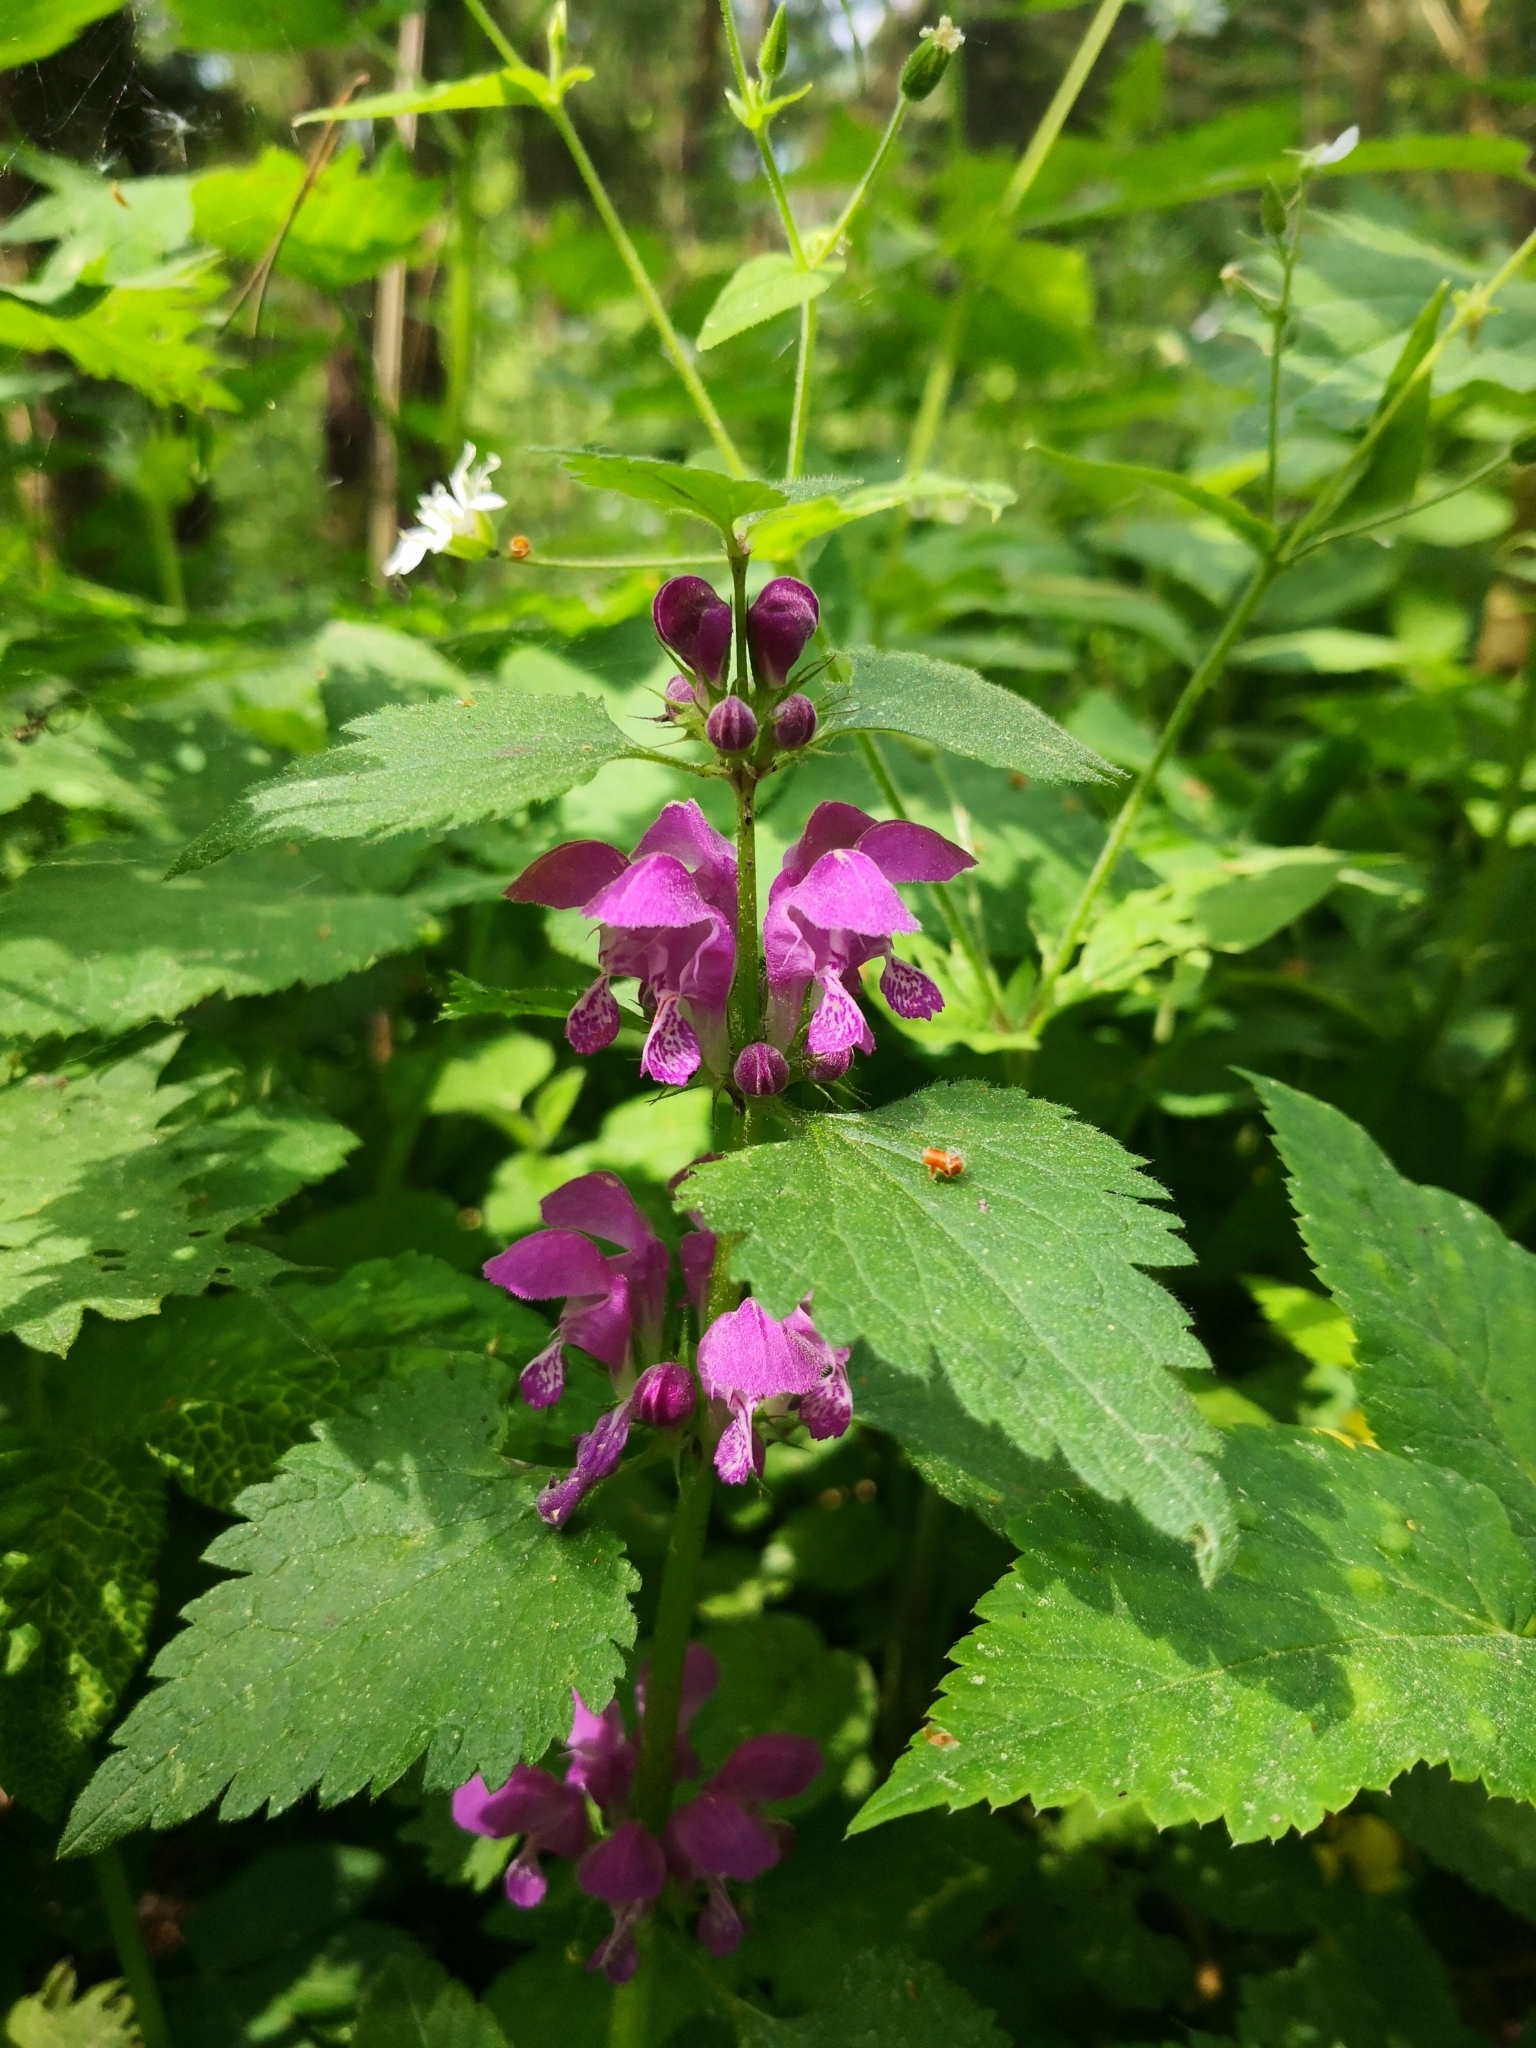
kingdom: Plantae
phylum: Tracheophyta
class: Magnoliopsida
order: Lamiales
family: Lamiaceae
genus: Lamium
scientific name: Lamium maculatum
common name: Spotted dead-nettle
